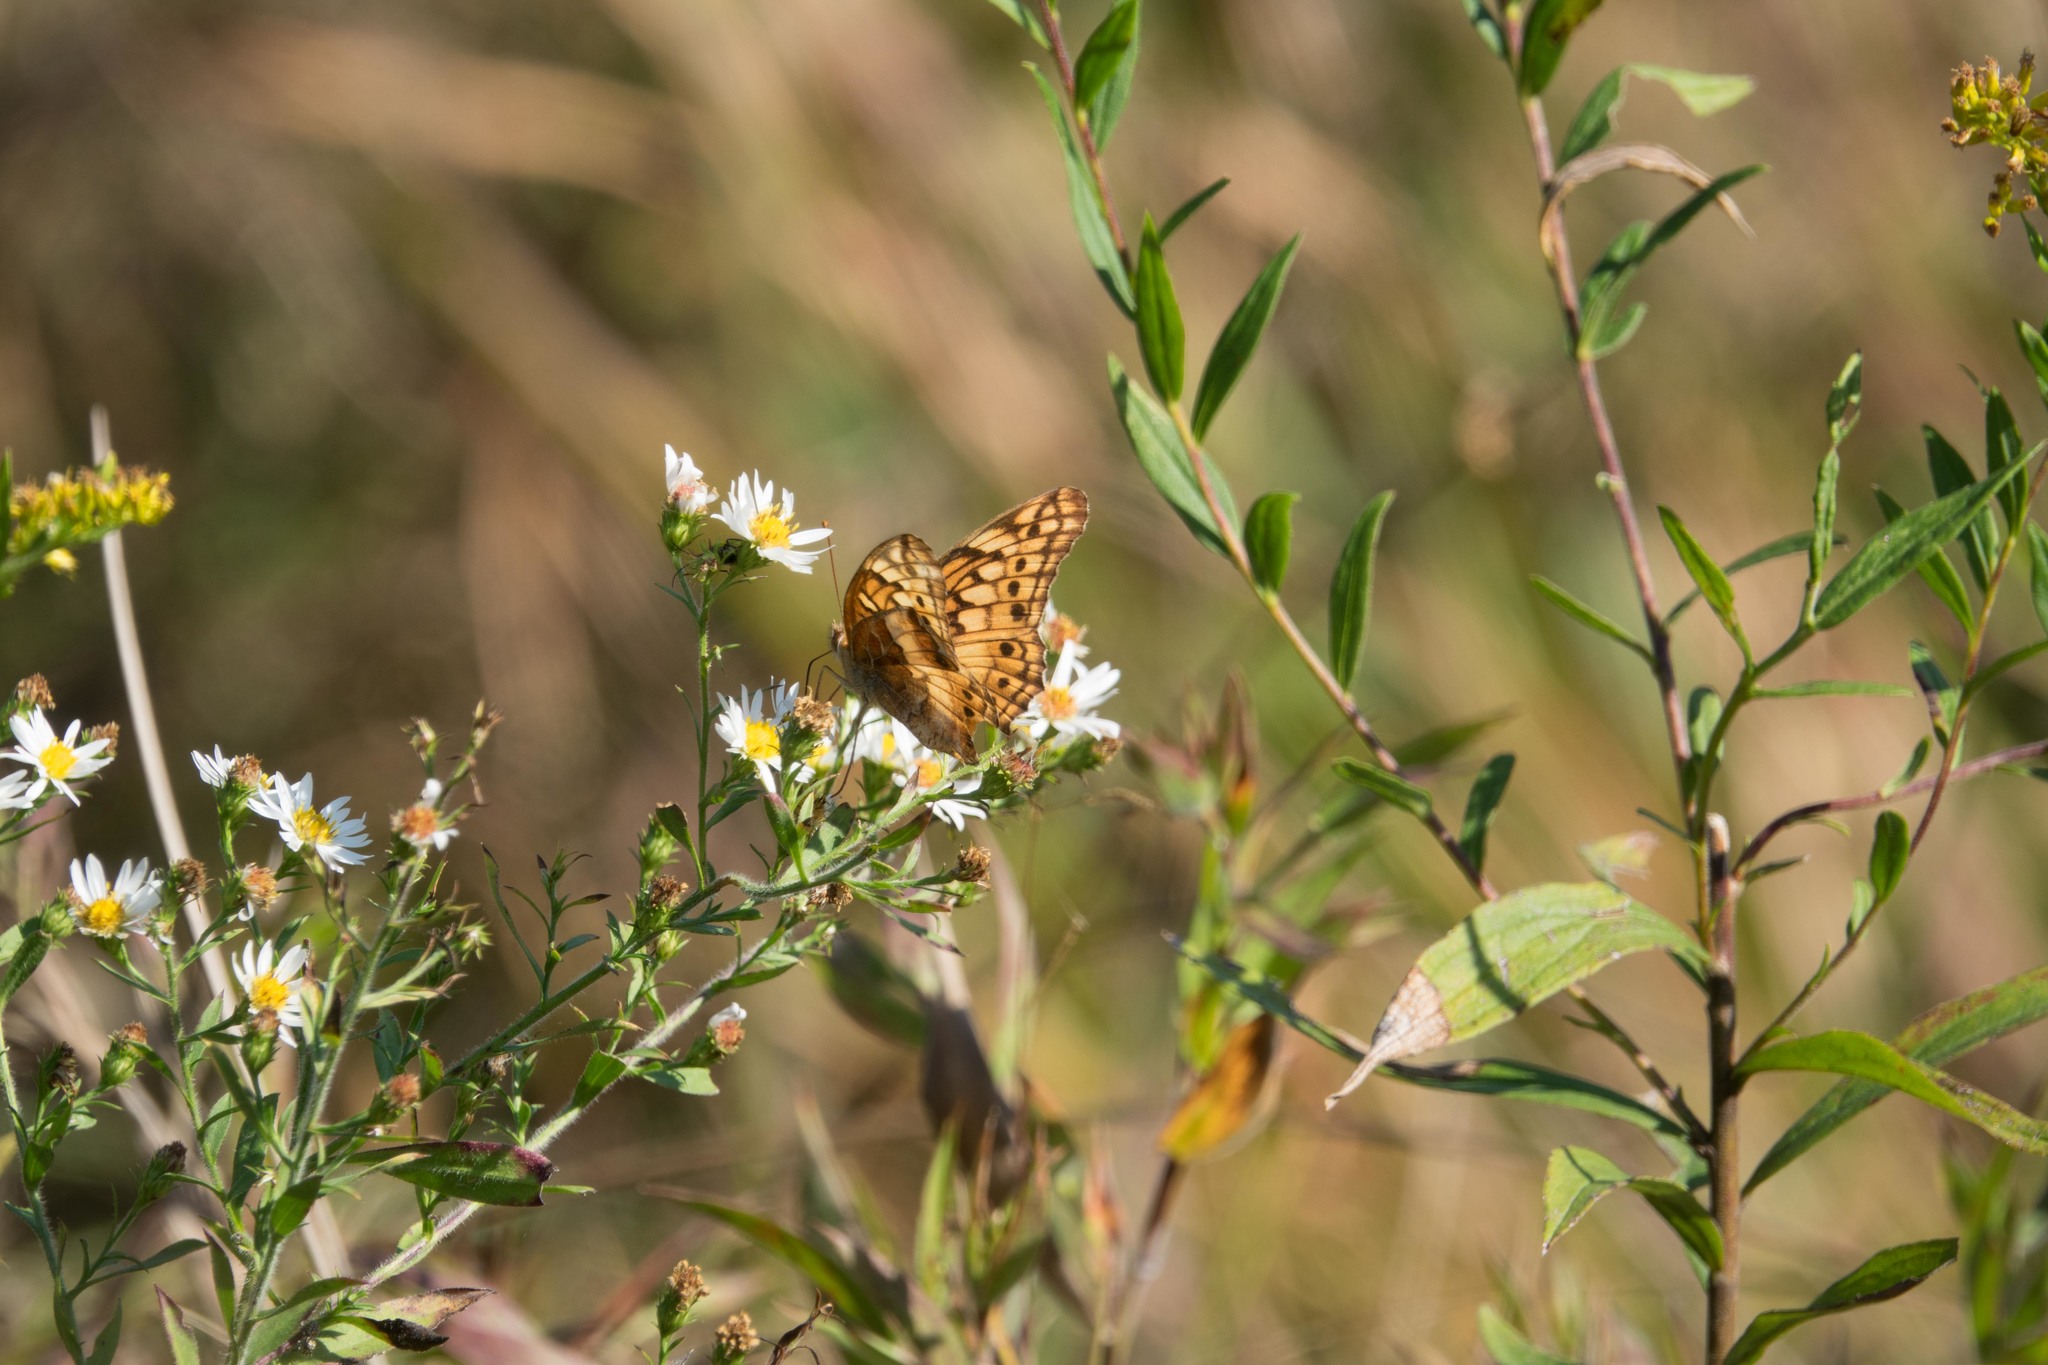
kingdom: Animalia
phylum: Arthropoda
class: Insecta
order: Lepidoptera
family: Nymphalidae
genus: Euptoieta
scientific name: Euptoieta claudia
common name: Variegated fritillary
